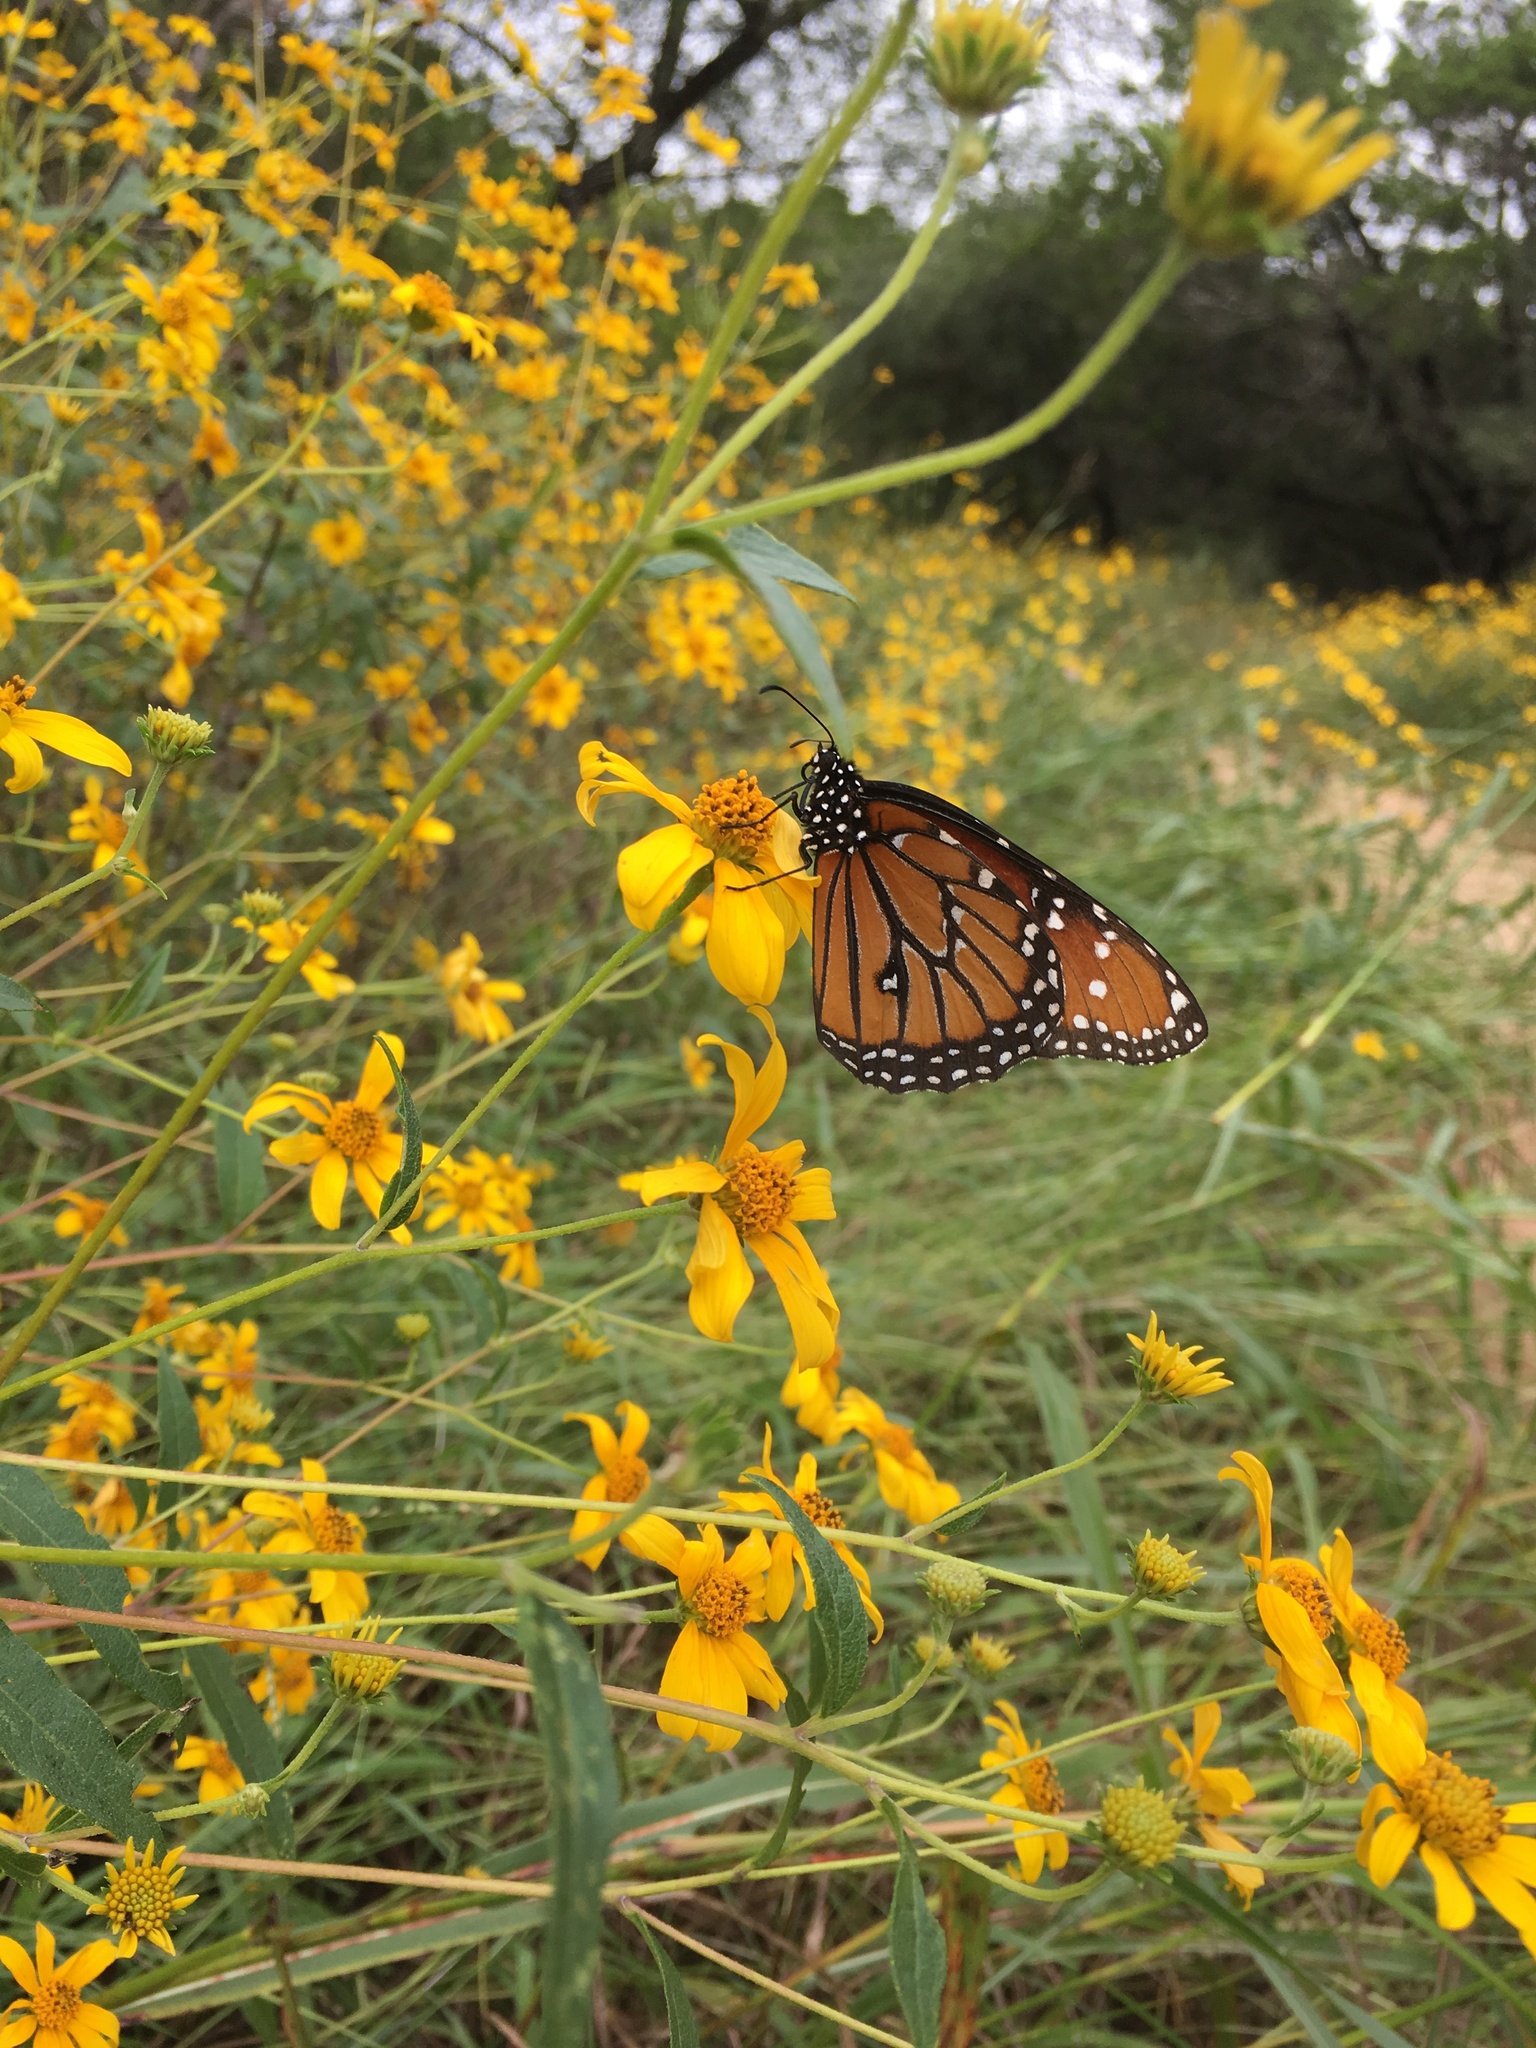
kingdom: Animalia
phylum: Arthropoda
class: Insecta
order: Lepidoptera
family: Nymphalidae
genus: Danaus
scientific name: Danaus gilippus
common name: Queen
